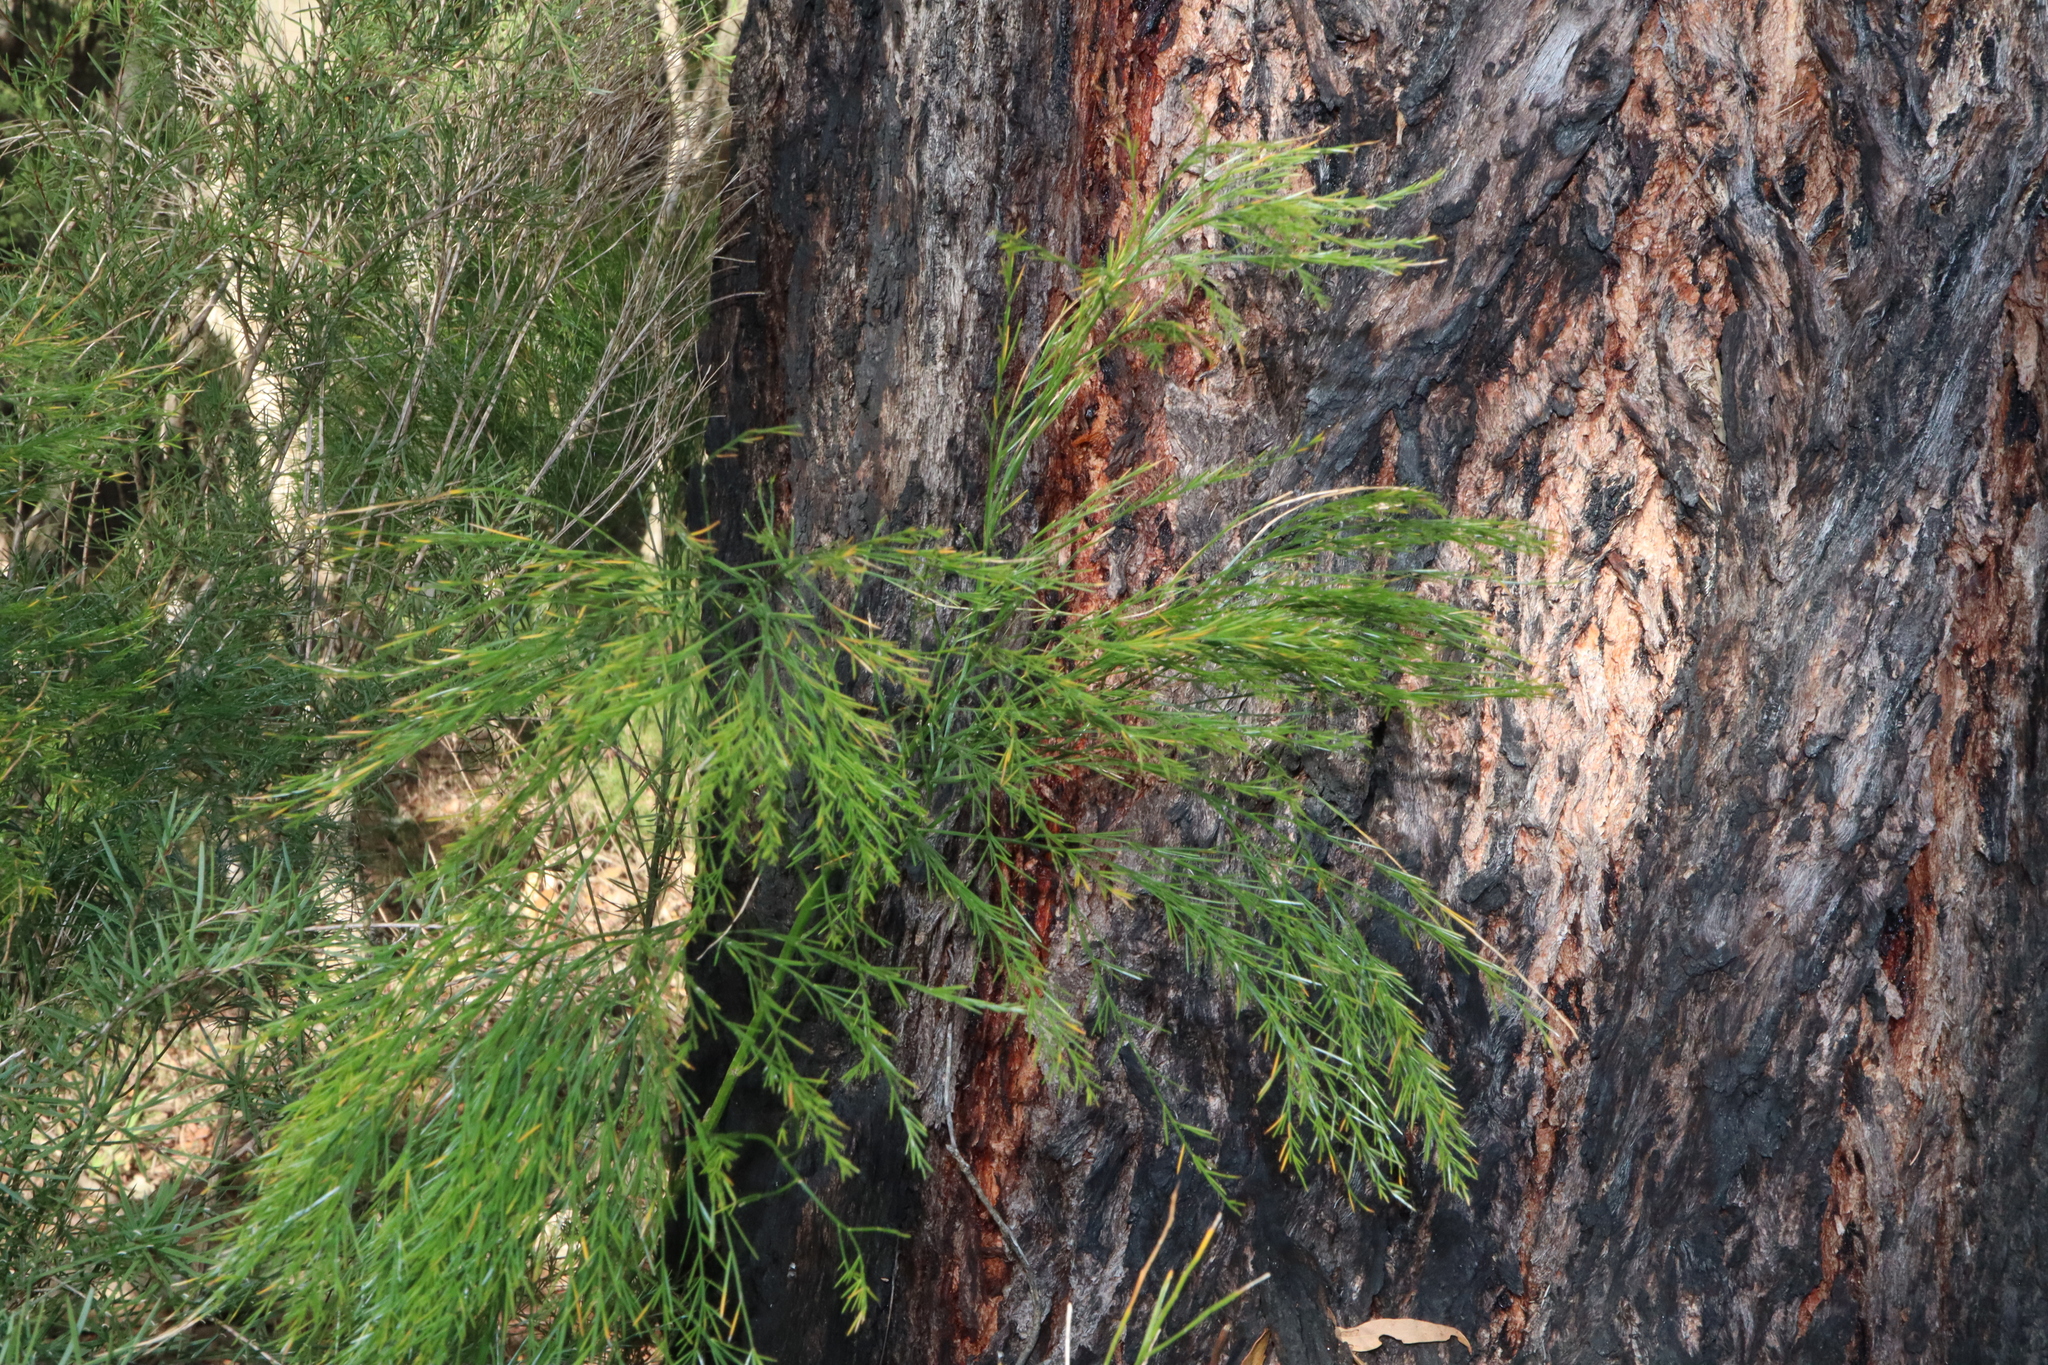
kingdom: Plantae
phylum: Tracheophyta
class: Liliopsida
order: Asparagales
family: Asparagaceae
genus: Asparagus
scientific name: Asparagus virgatus
